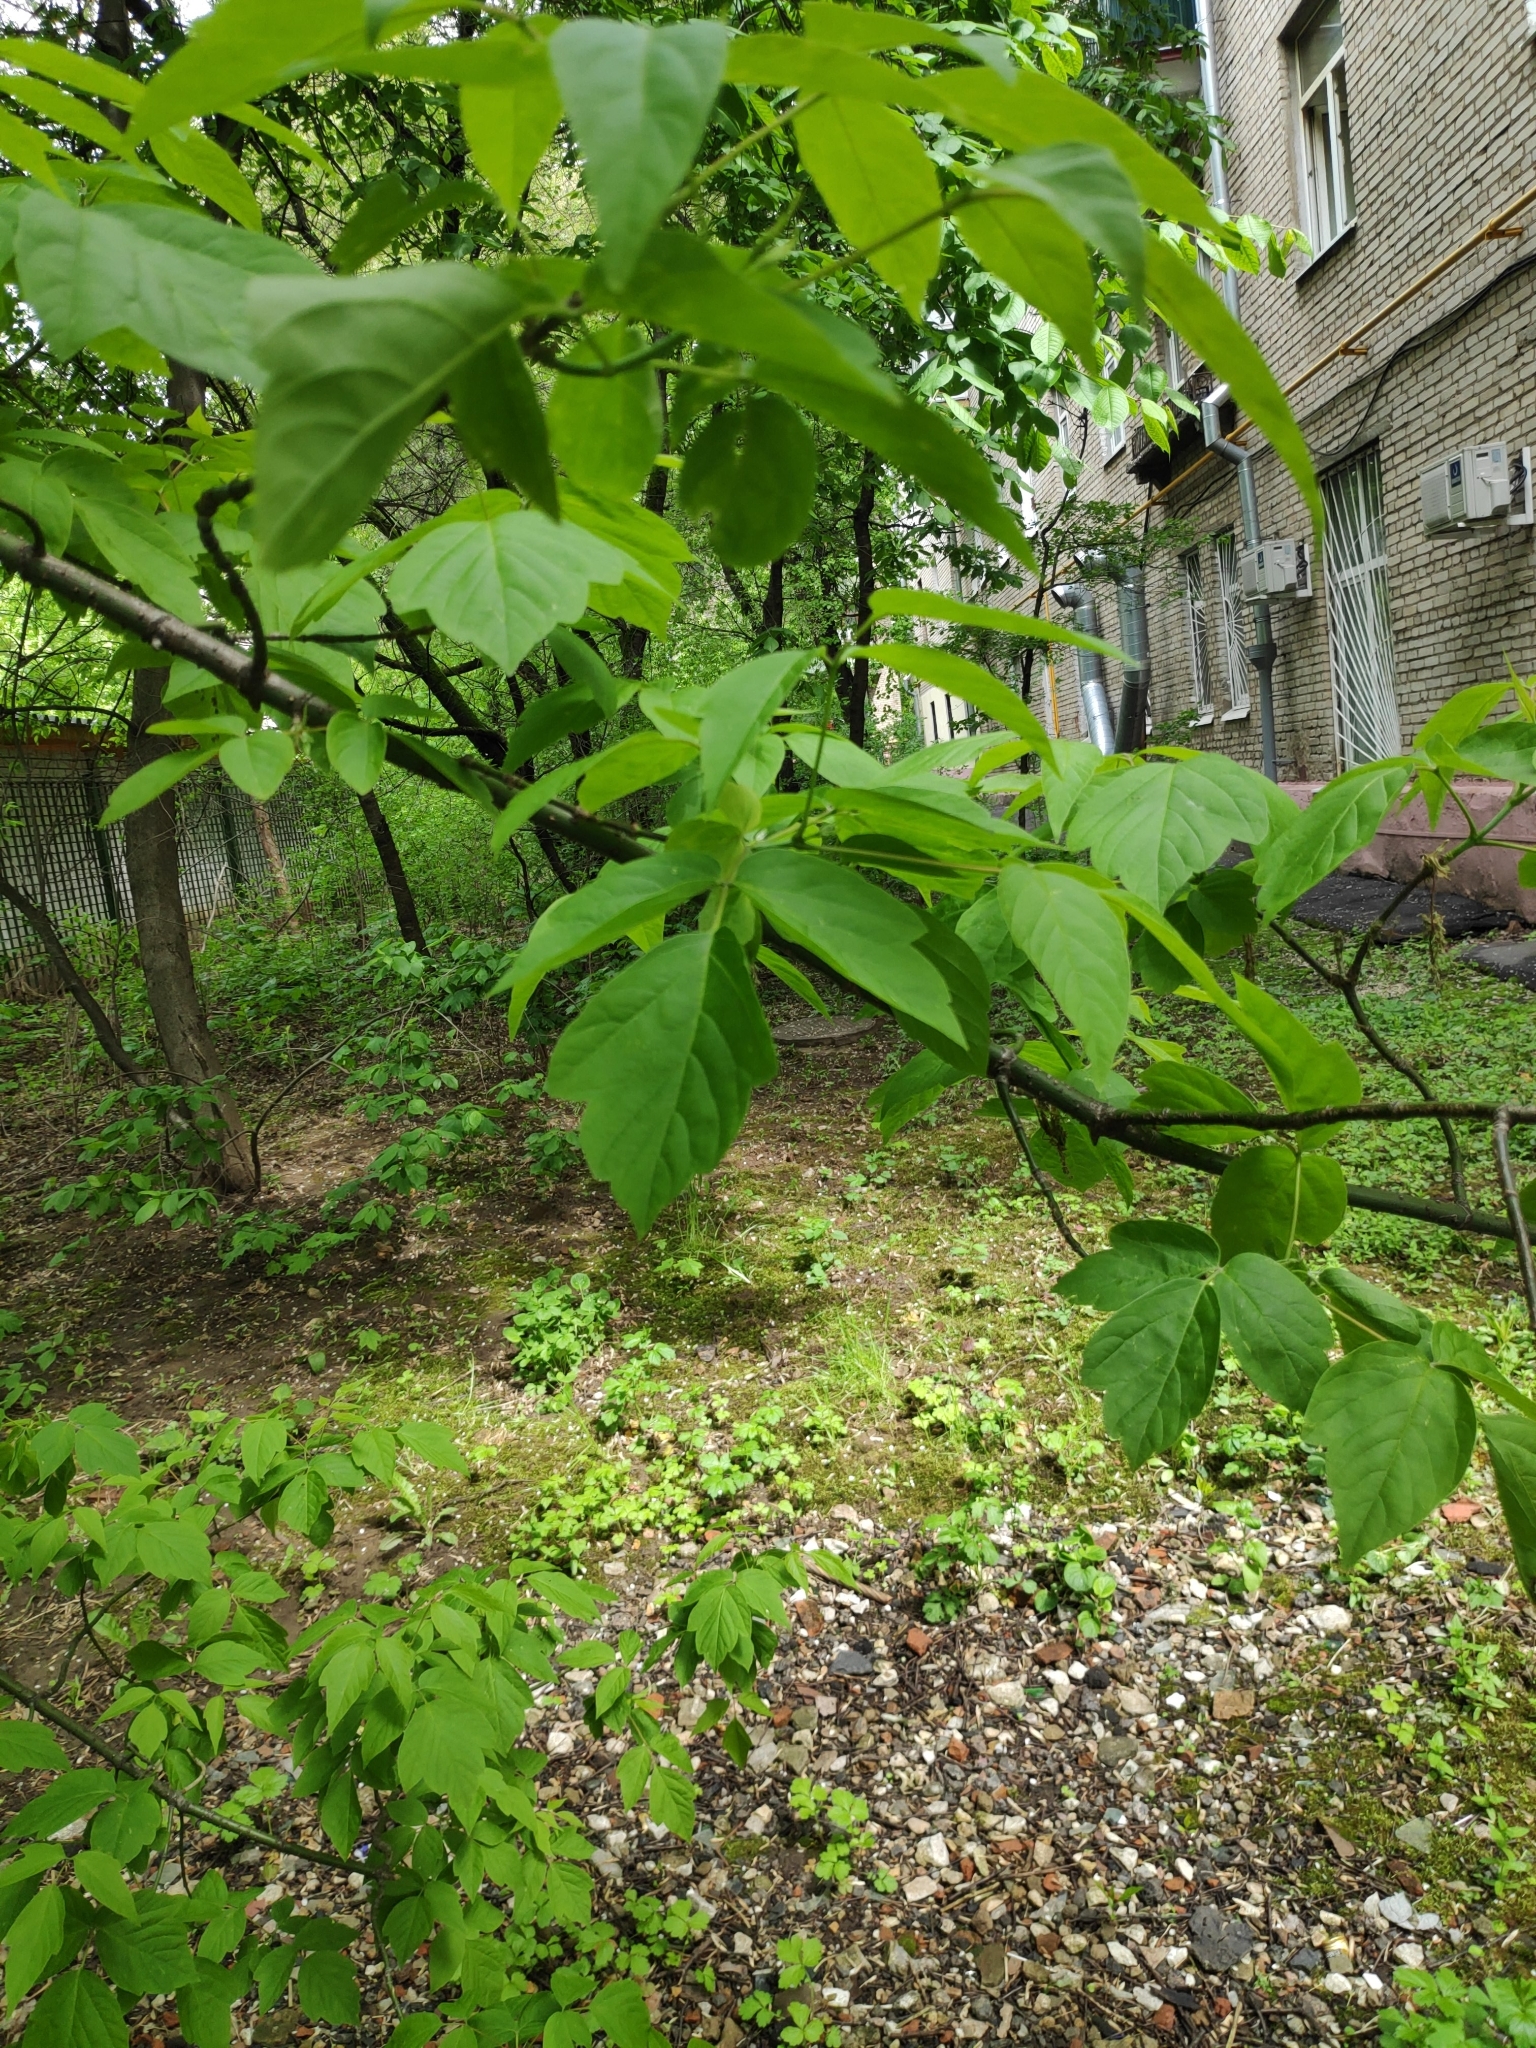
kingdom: Plantae
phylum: Tracheophyta
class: Magnoliopsida
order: Sapindales
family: Sapindaceae
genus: Acer
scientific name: Acer negundo
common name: Ashleaf maple
